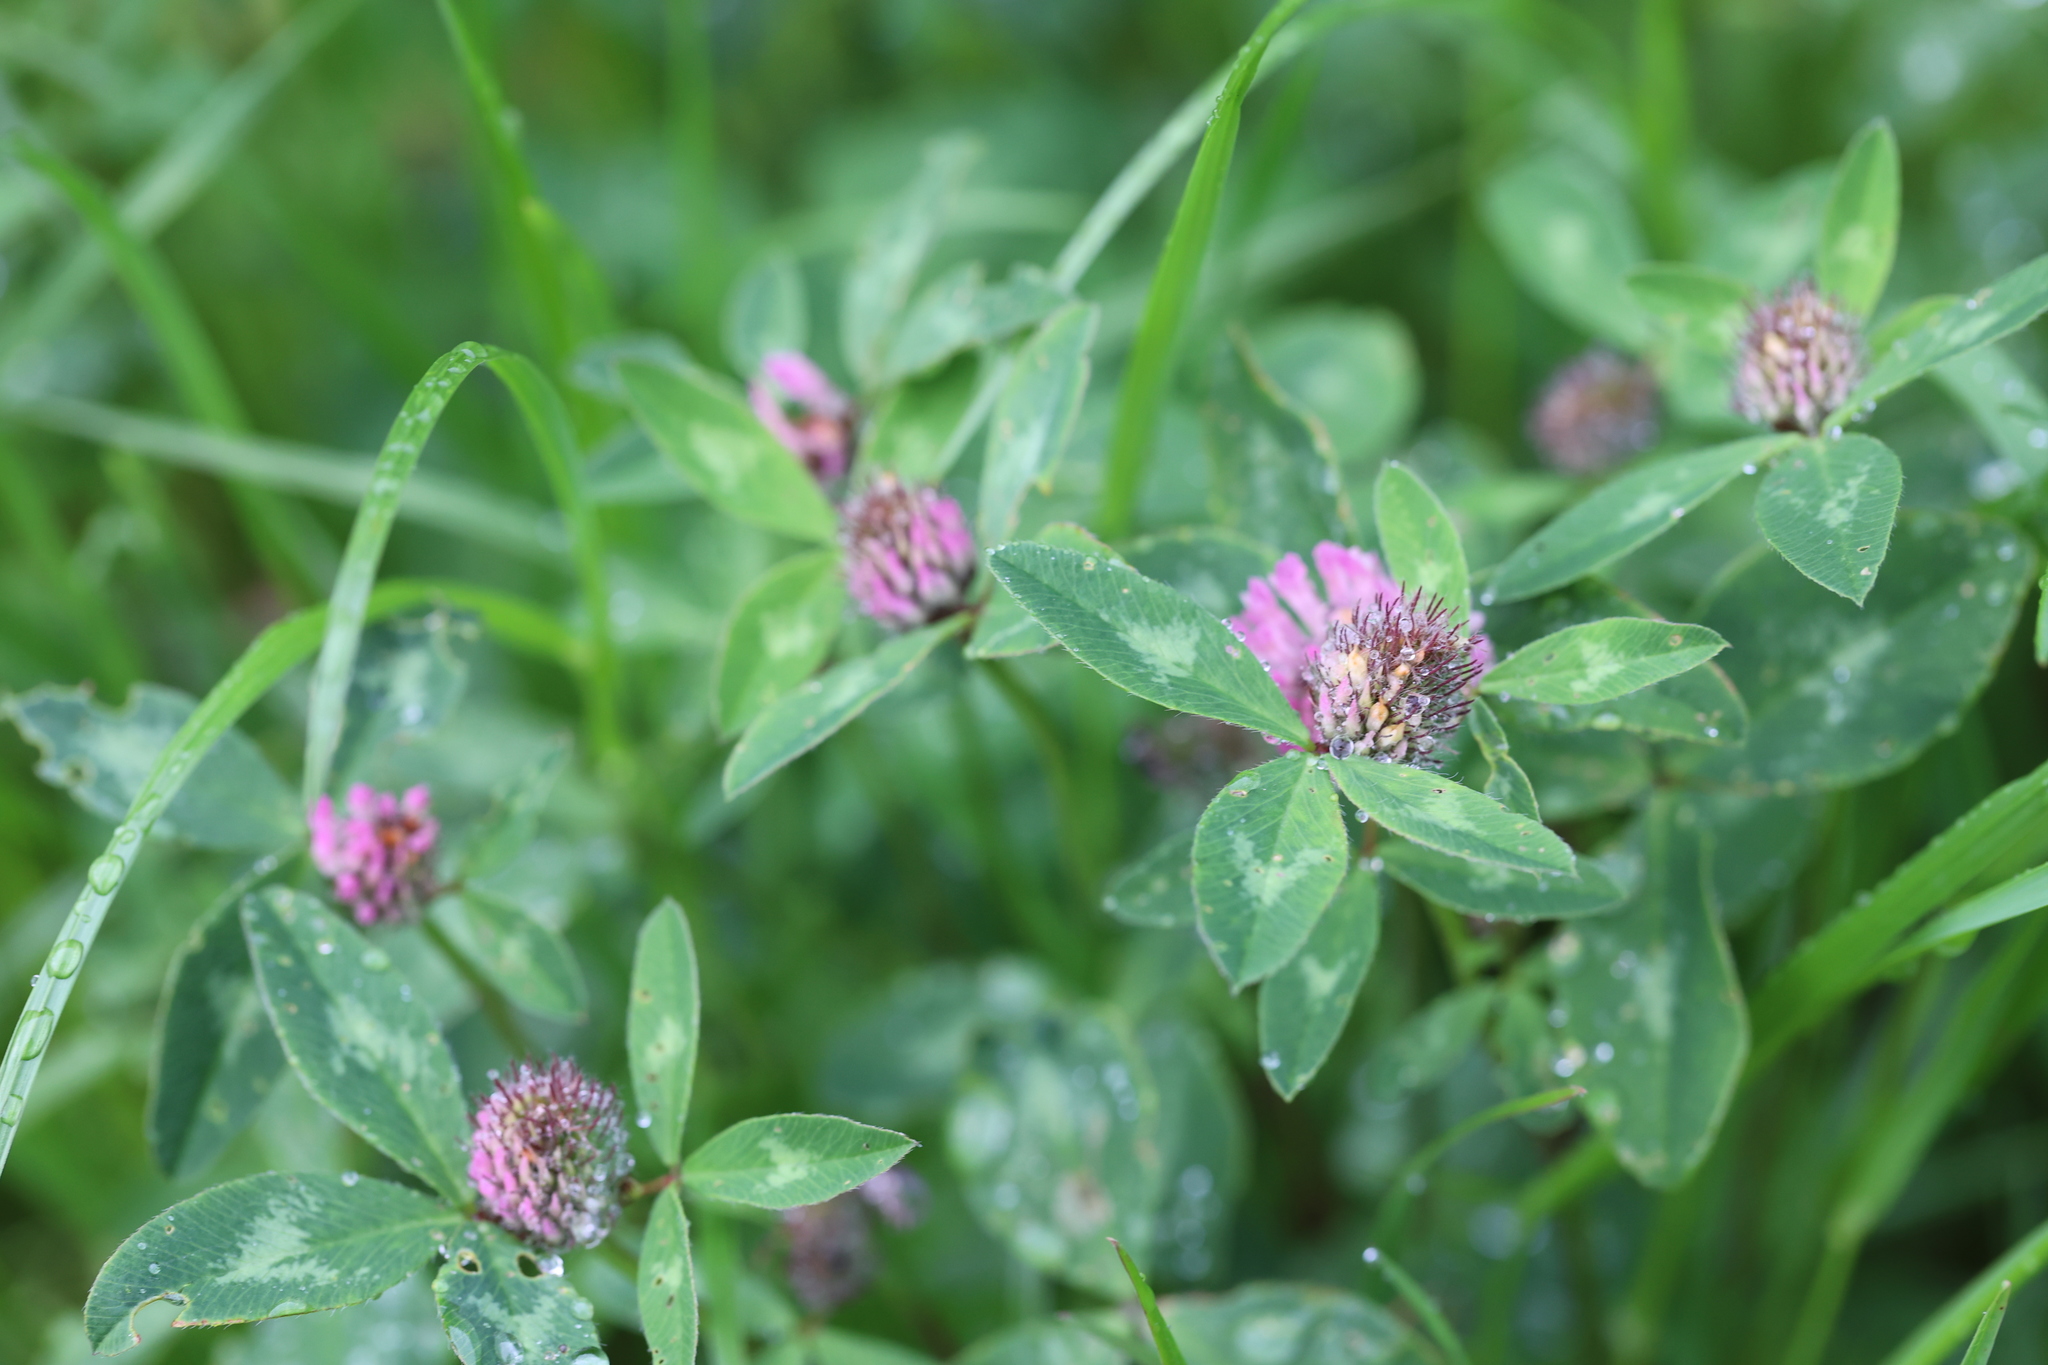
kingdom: Plantae
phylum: Tracheophyta
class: Magnoliopsida
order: Fabales
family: Fabaceae
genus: Trifolium
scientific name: Trifolium pratense
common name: Red clover
